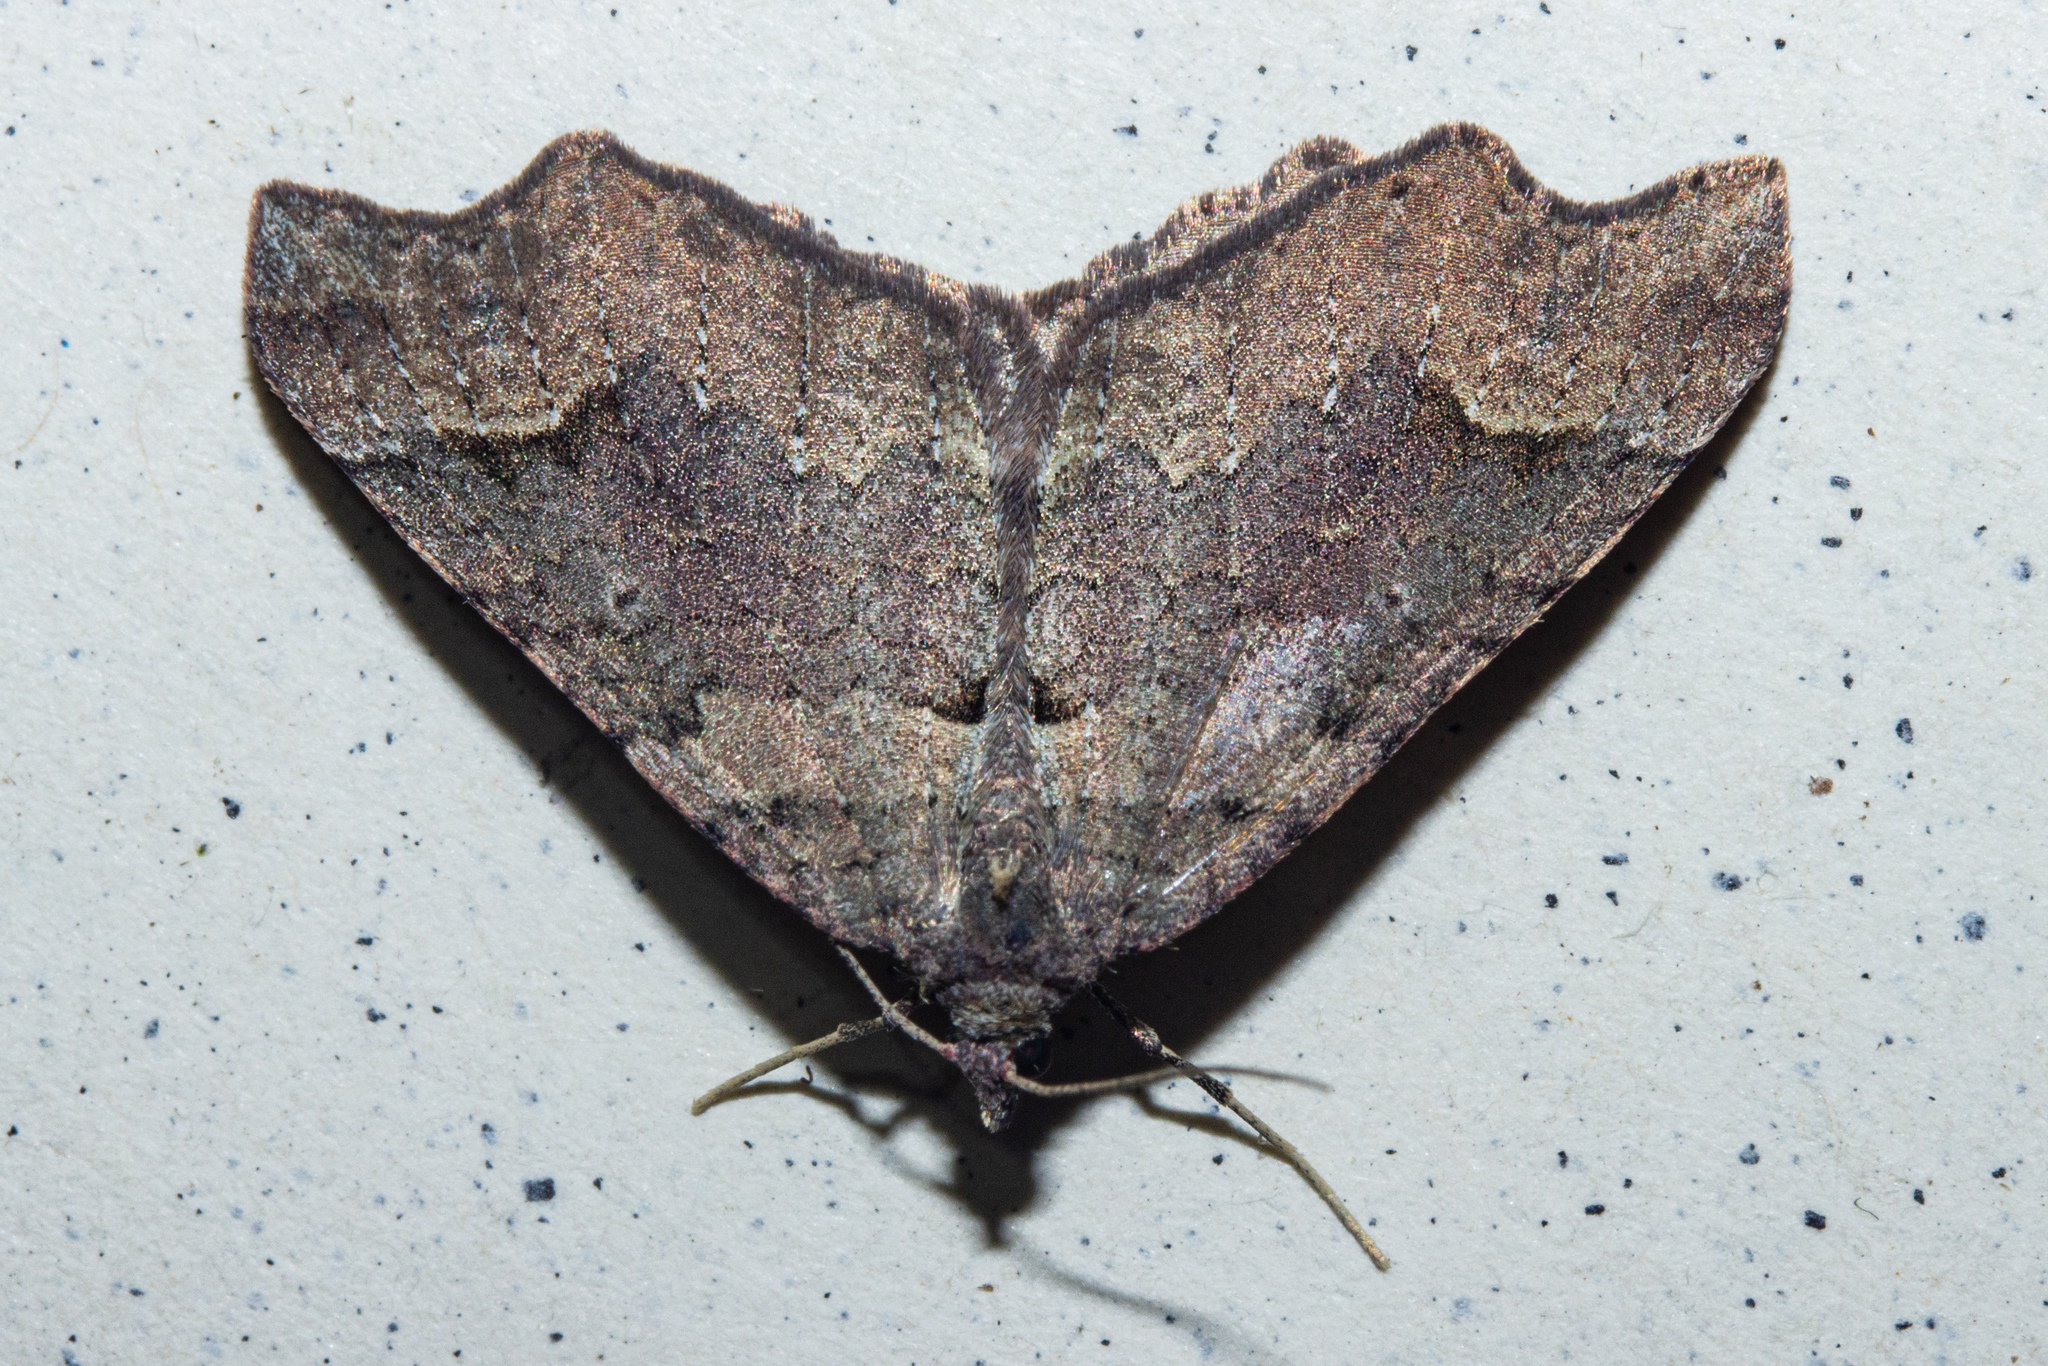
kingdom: Animalia
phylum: Arthropoda
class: Insecta
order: Lepidoptera
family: Geometridae
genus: Austrocidaria
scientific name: Austrocidaria parora
